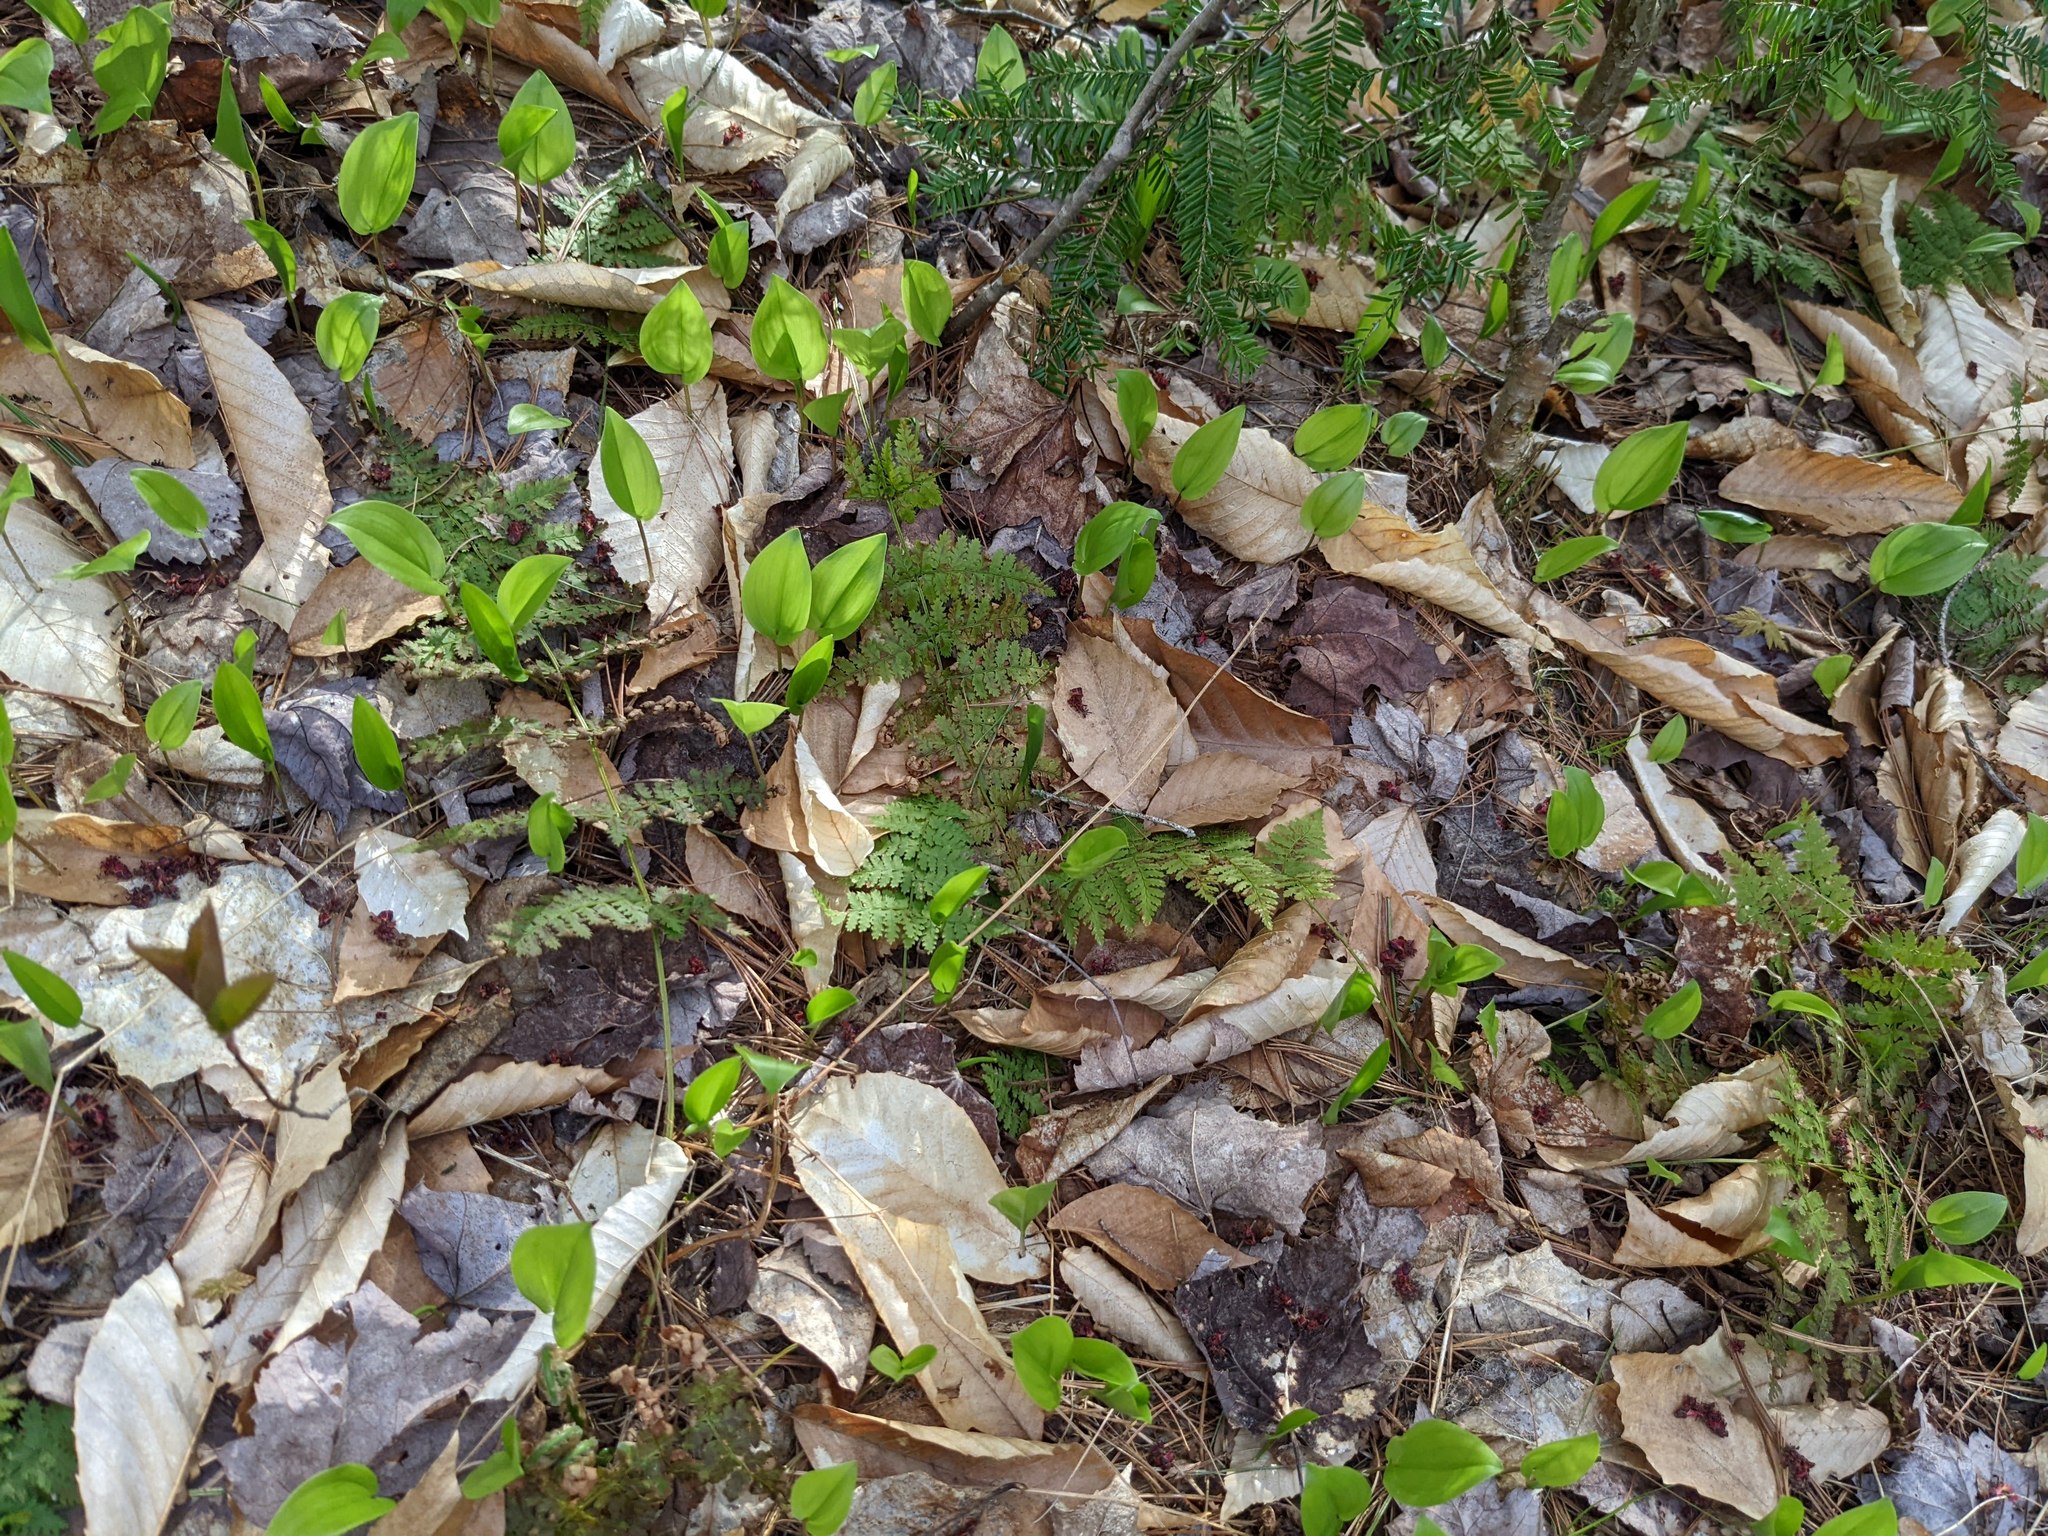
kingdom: Plantae
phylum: Tracheophyta
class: Liliopsida
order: Asparagales
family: Asparagaceae
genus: Maianthemum
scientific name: Maianthemum canadense
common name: False lily-of-the-valley
